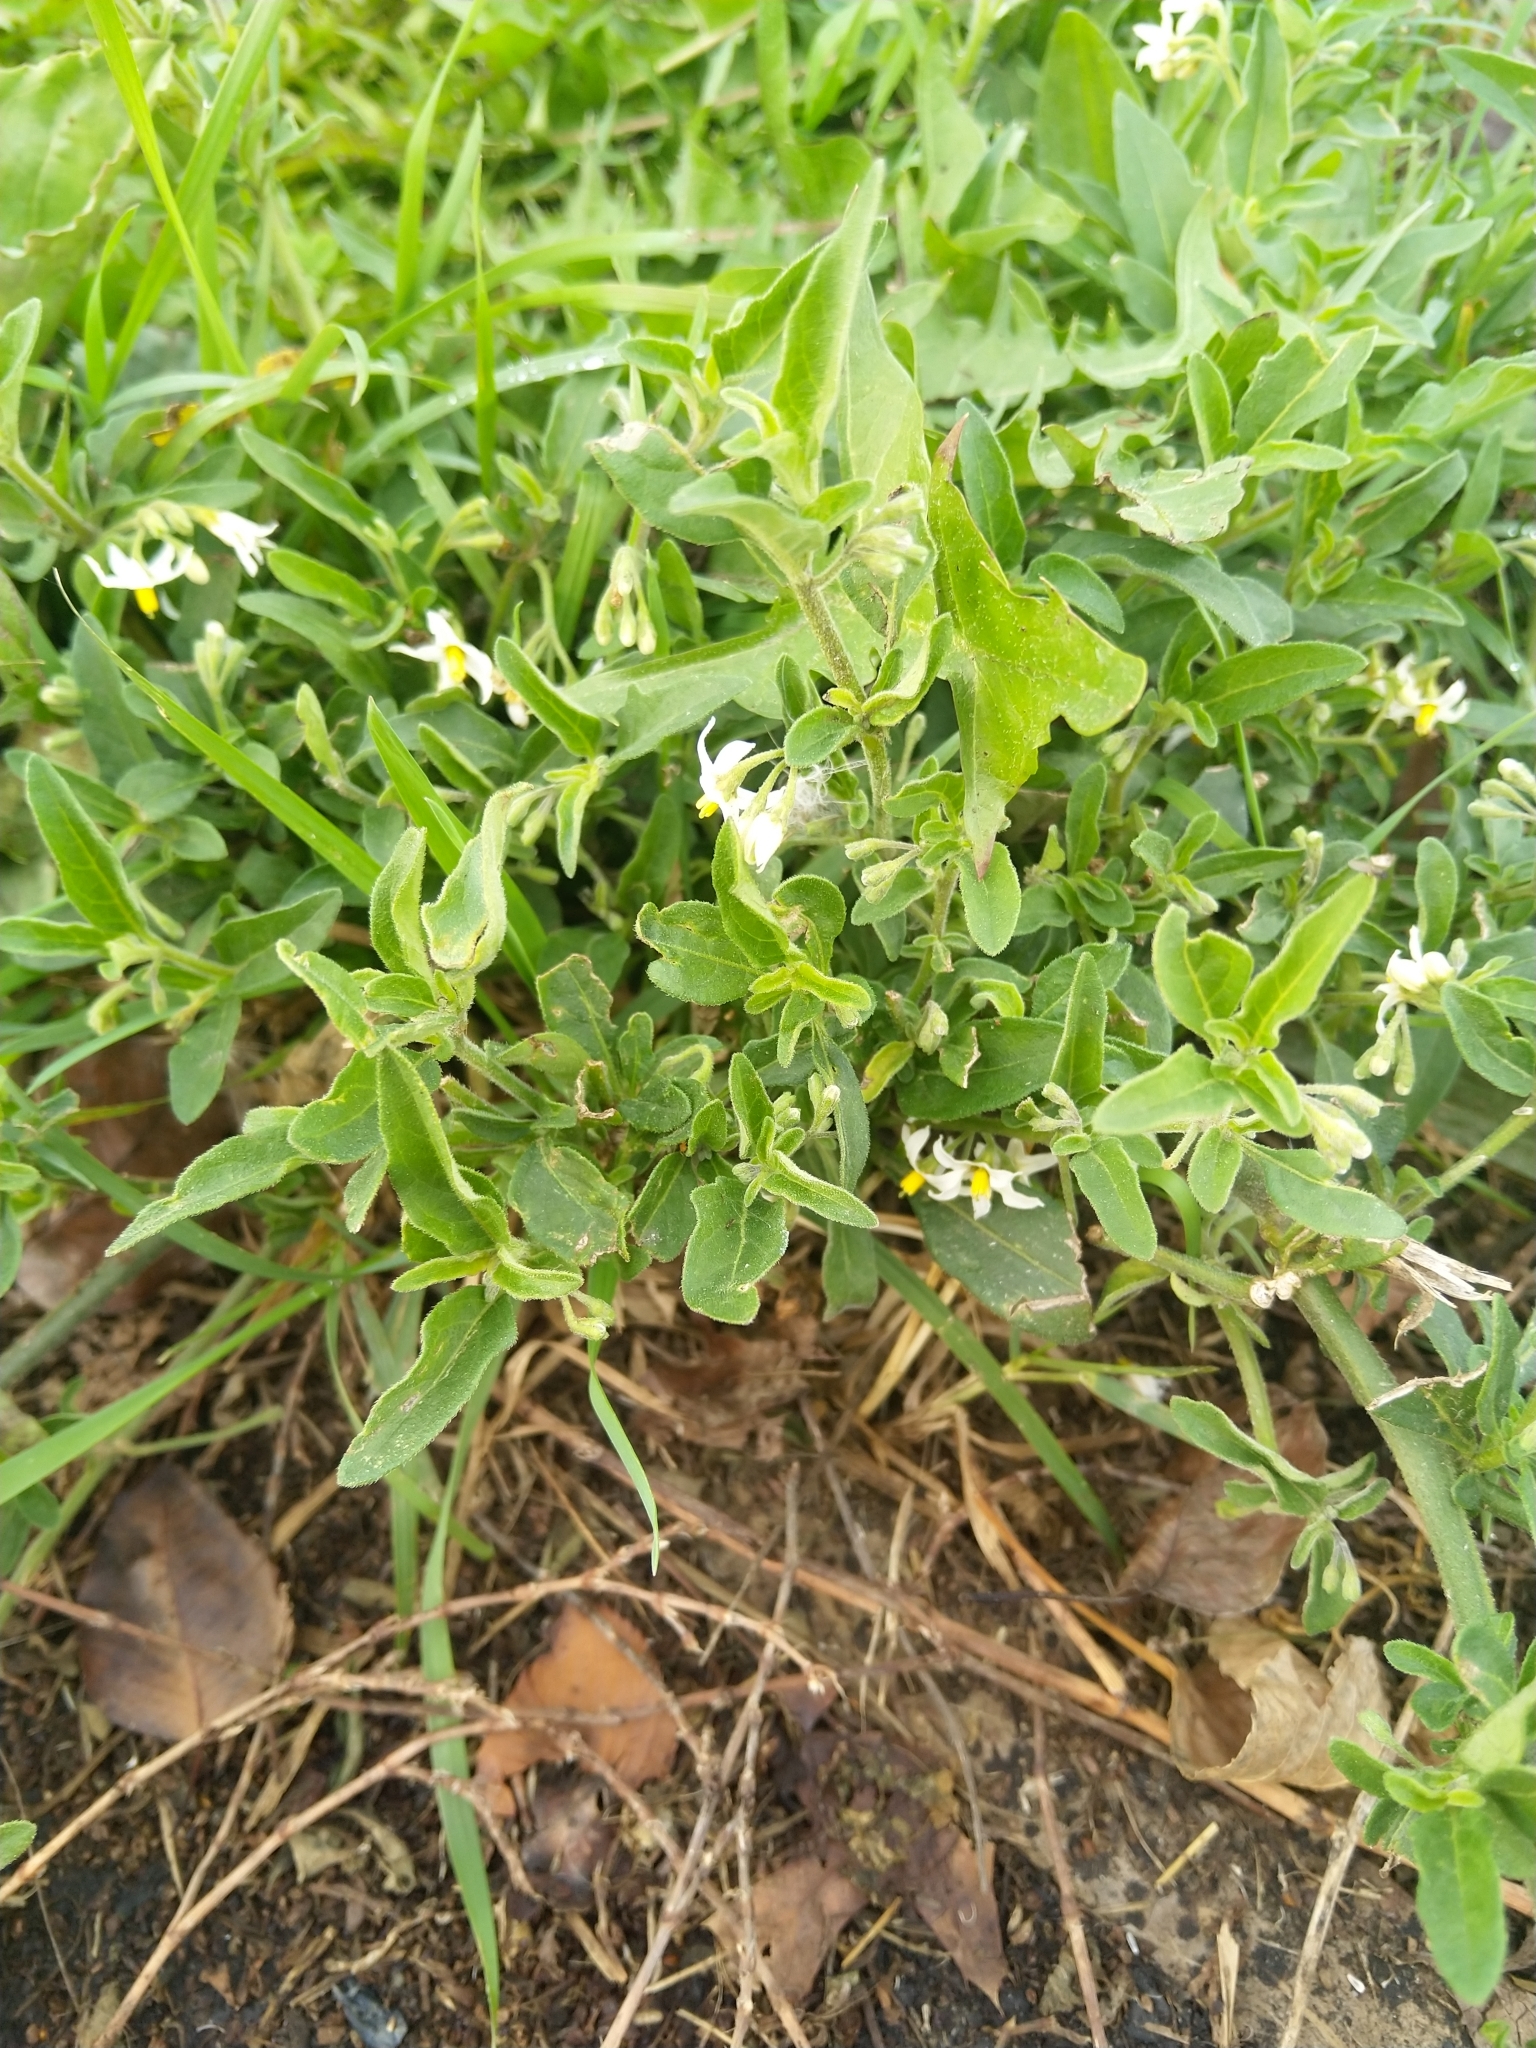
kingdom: Plantae
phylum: Tracheophyta
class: Magnoliopsida
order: Solanales
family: Solanaceae
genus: Solanum
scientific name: Solanum chenopodioides
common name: Tall nightshade
